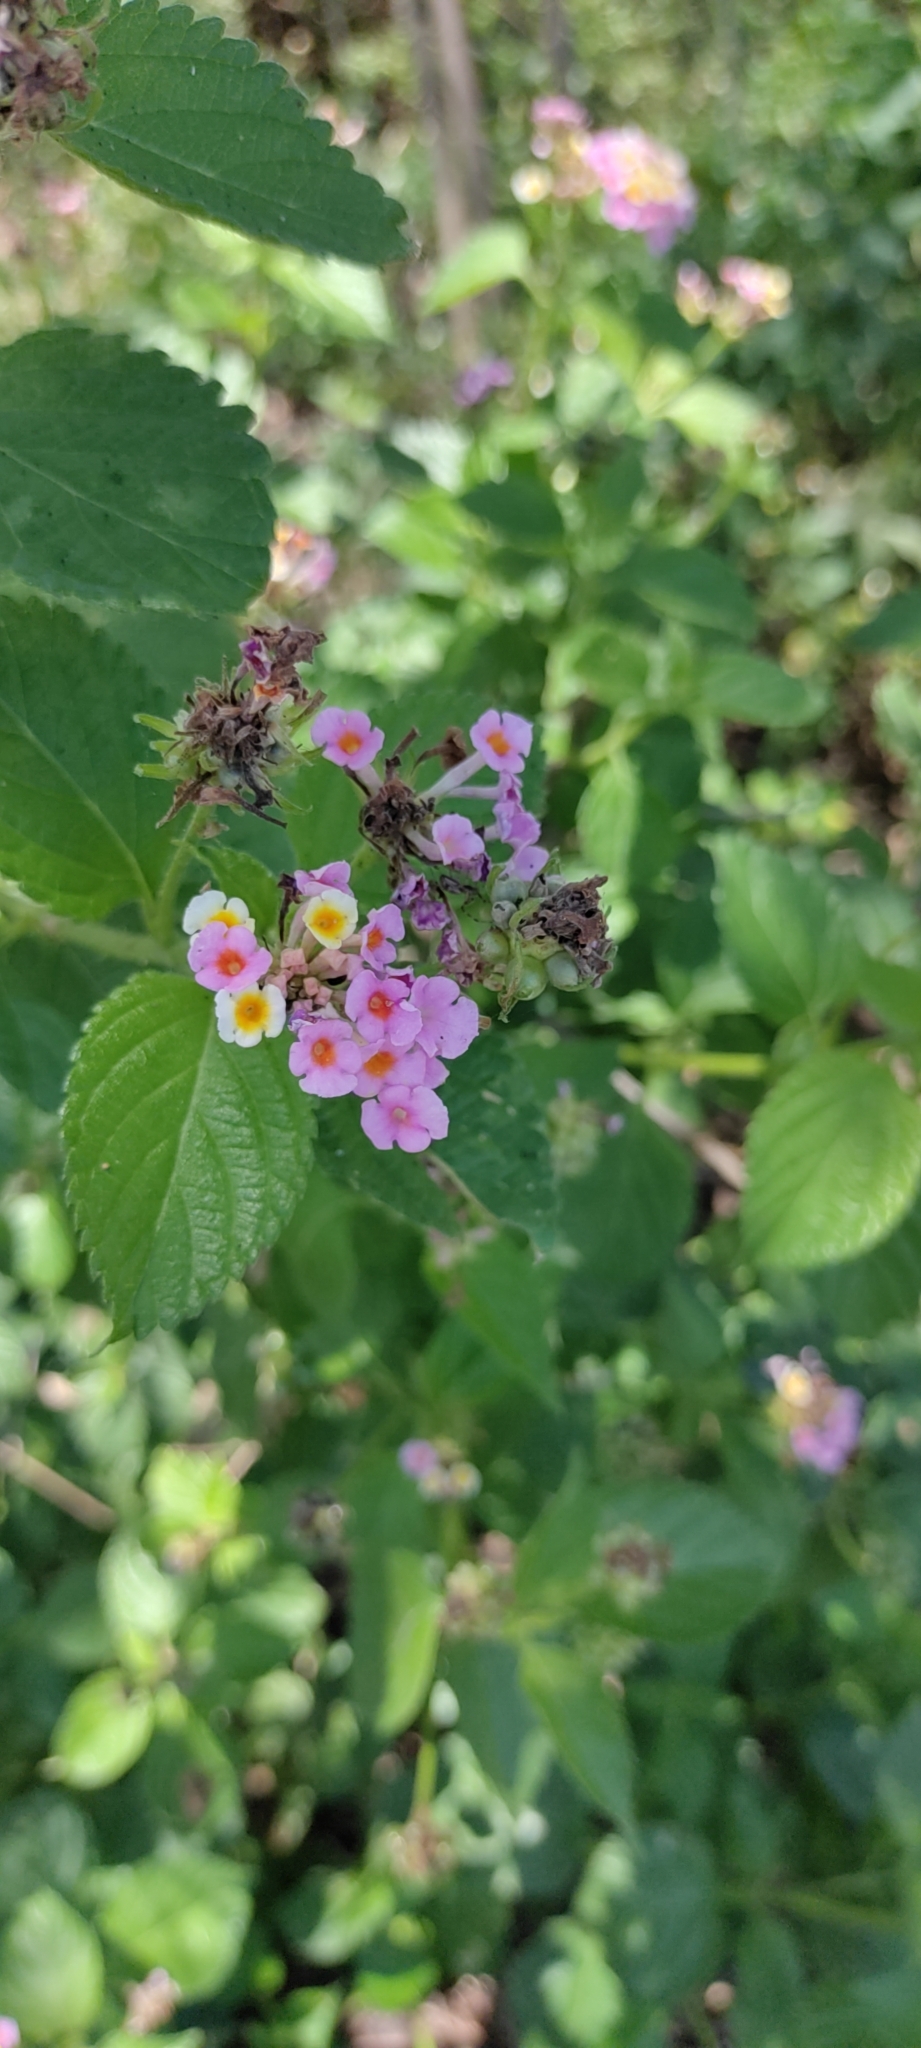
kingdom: Plantae
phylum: Tracheophyta
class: Magnoliopsida
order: Lamiales
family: Verbenaceae
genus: Lantana
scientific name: Lantana camara
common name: Lantana
